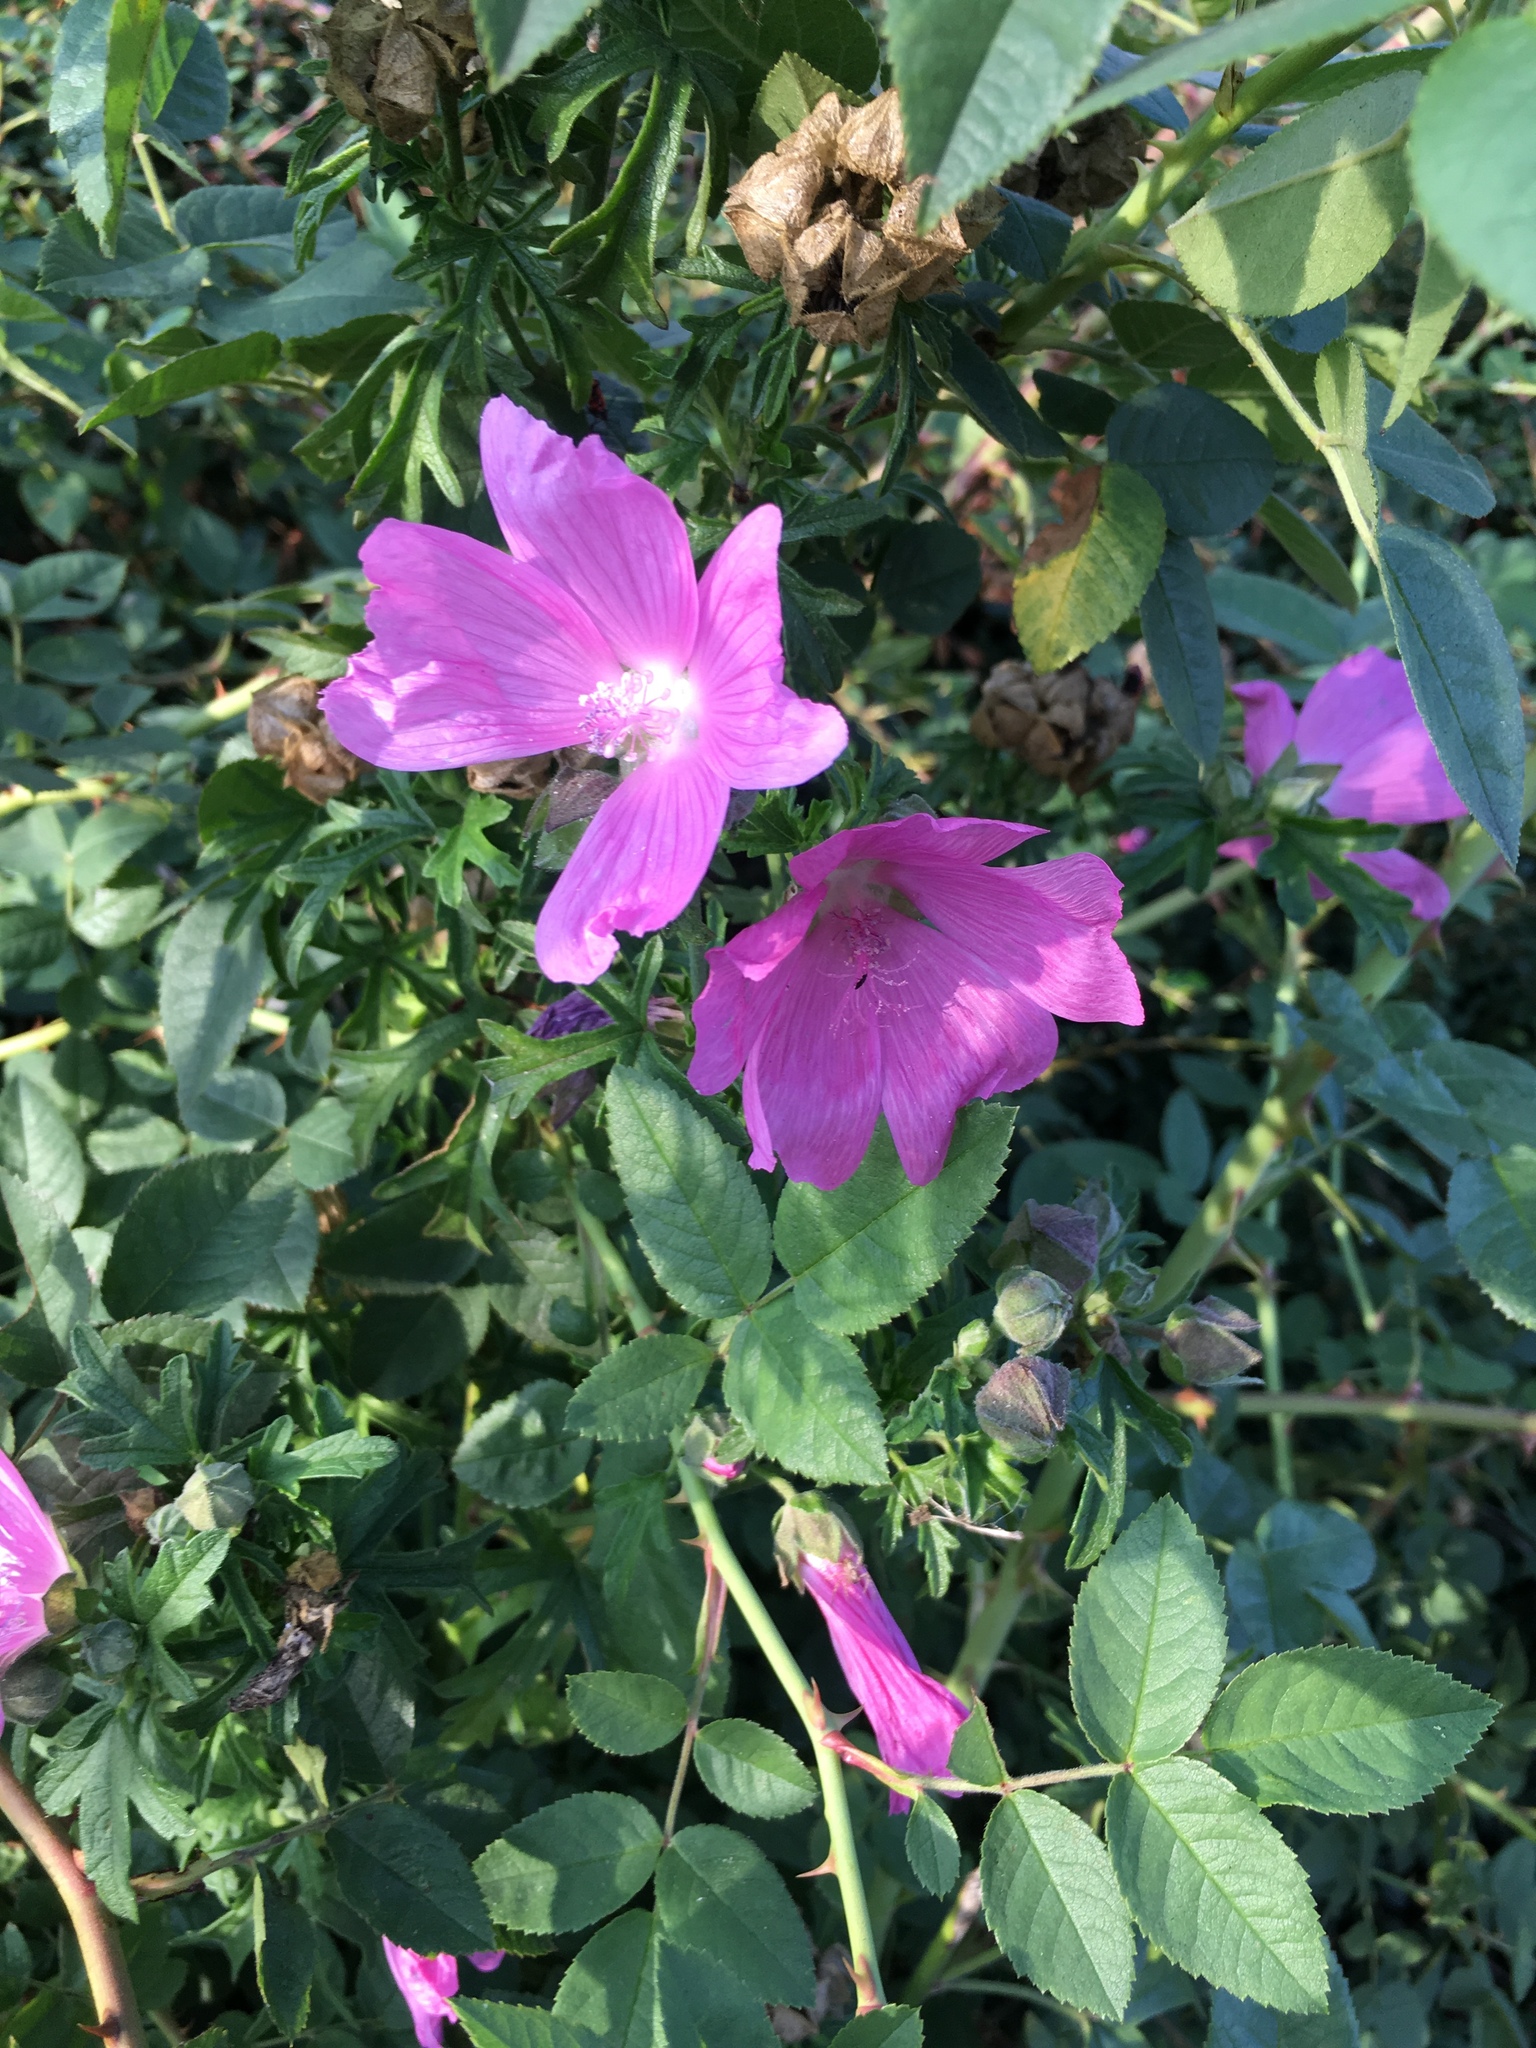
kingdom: Plantae
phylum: Tracheophyta
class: Magnoliopsida
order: Malvales
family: Malvaceae
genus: Malva
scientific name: Malva alcea
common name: Greater musk-mallow
